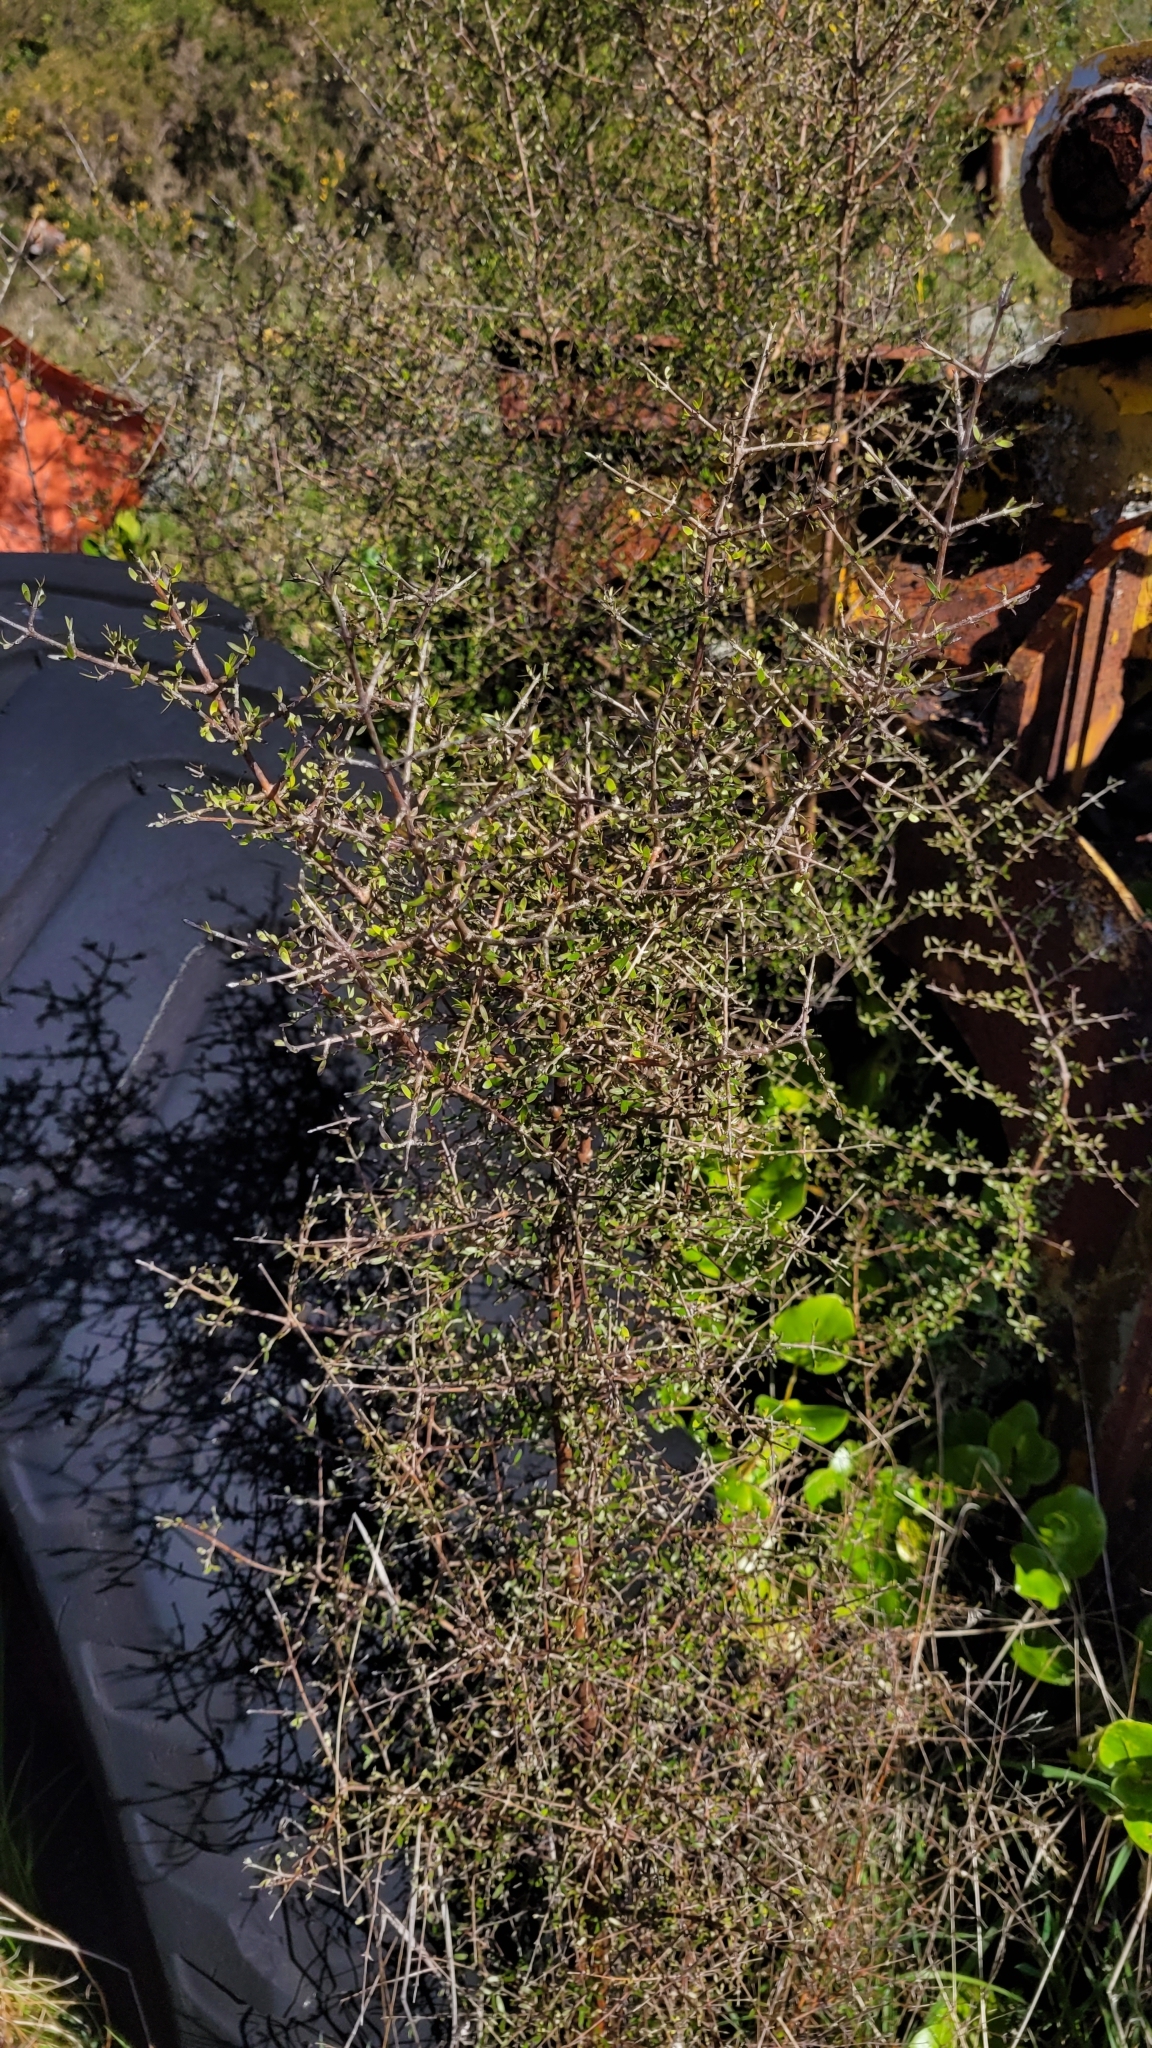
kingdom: Plantae
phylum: Tracheophyta
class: Magnoliopsida
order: Gentianales
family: Rubiaceae
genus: Coprosma
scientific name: Coprosma propinqua
